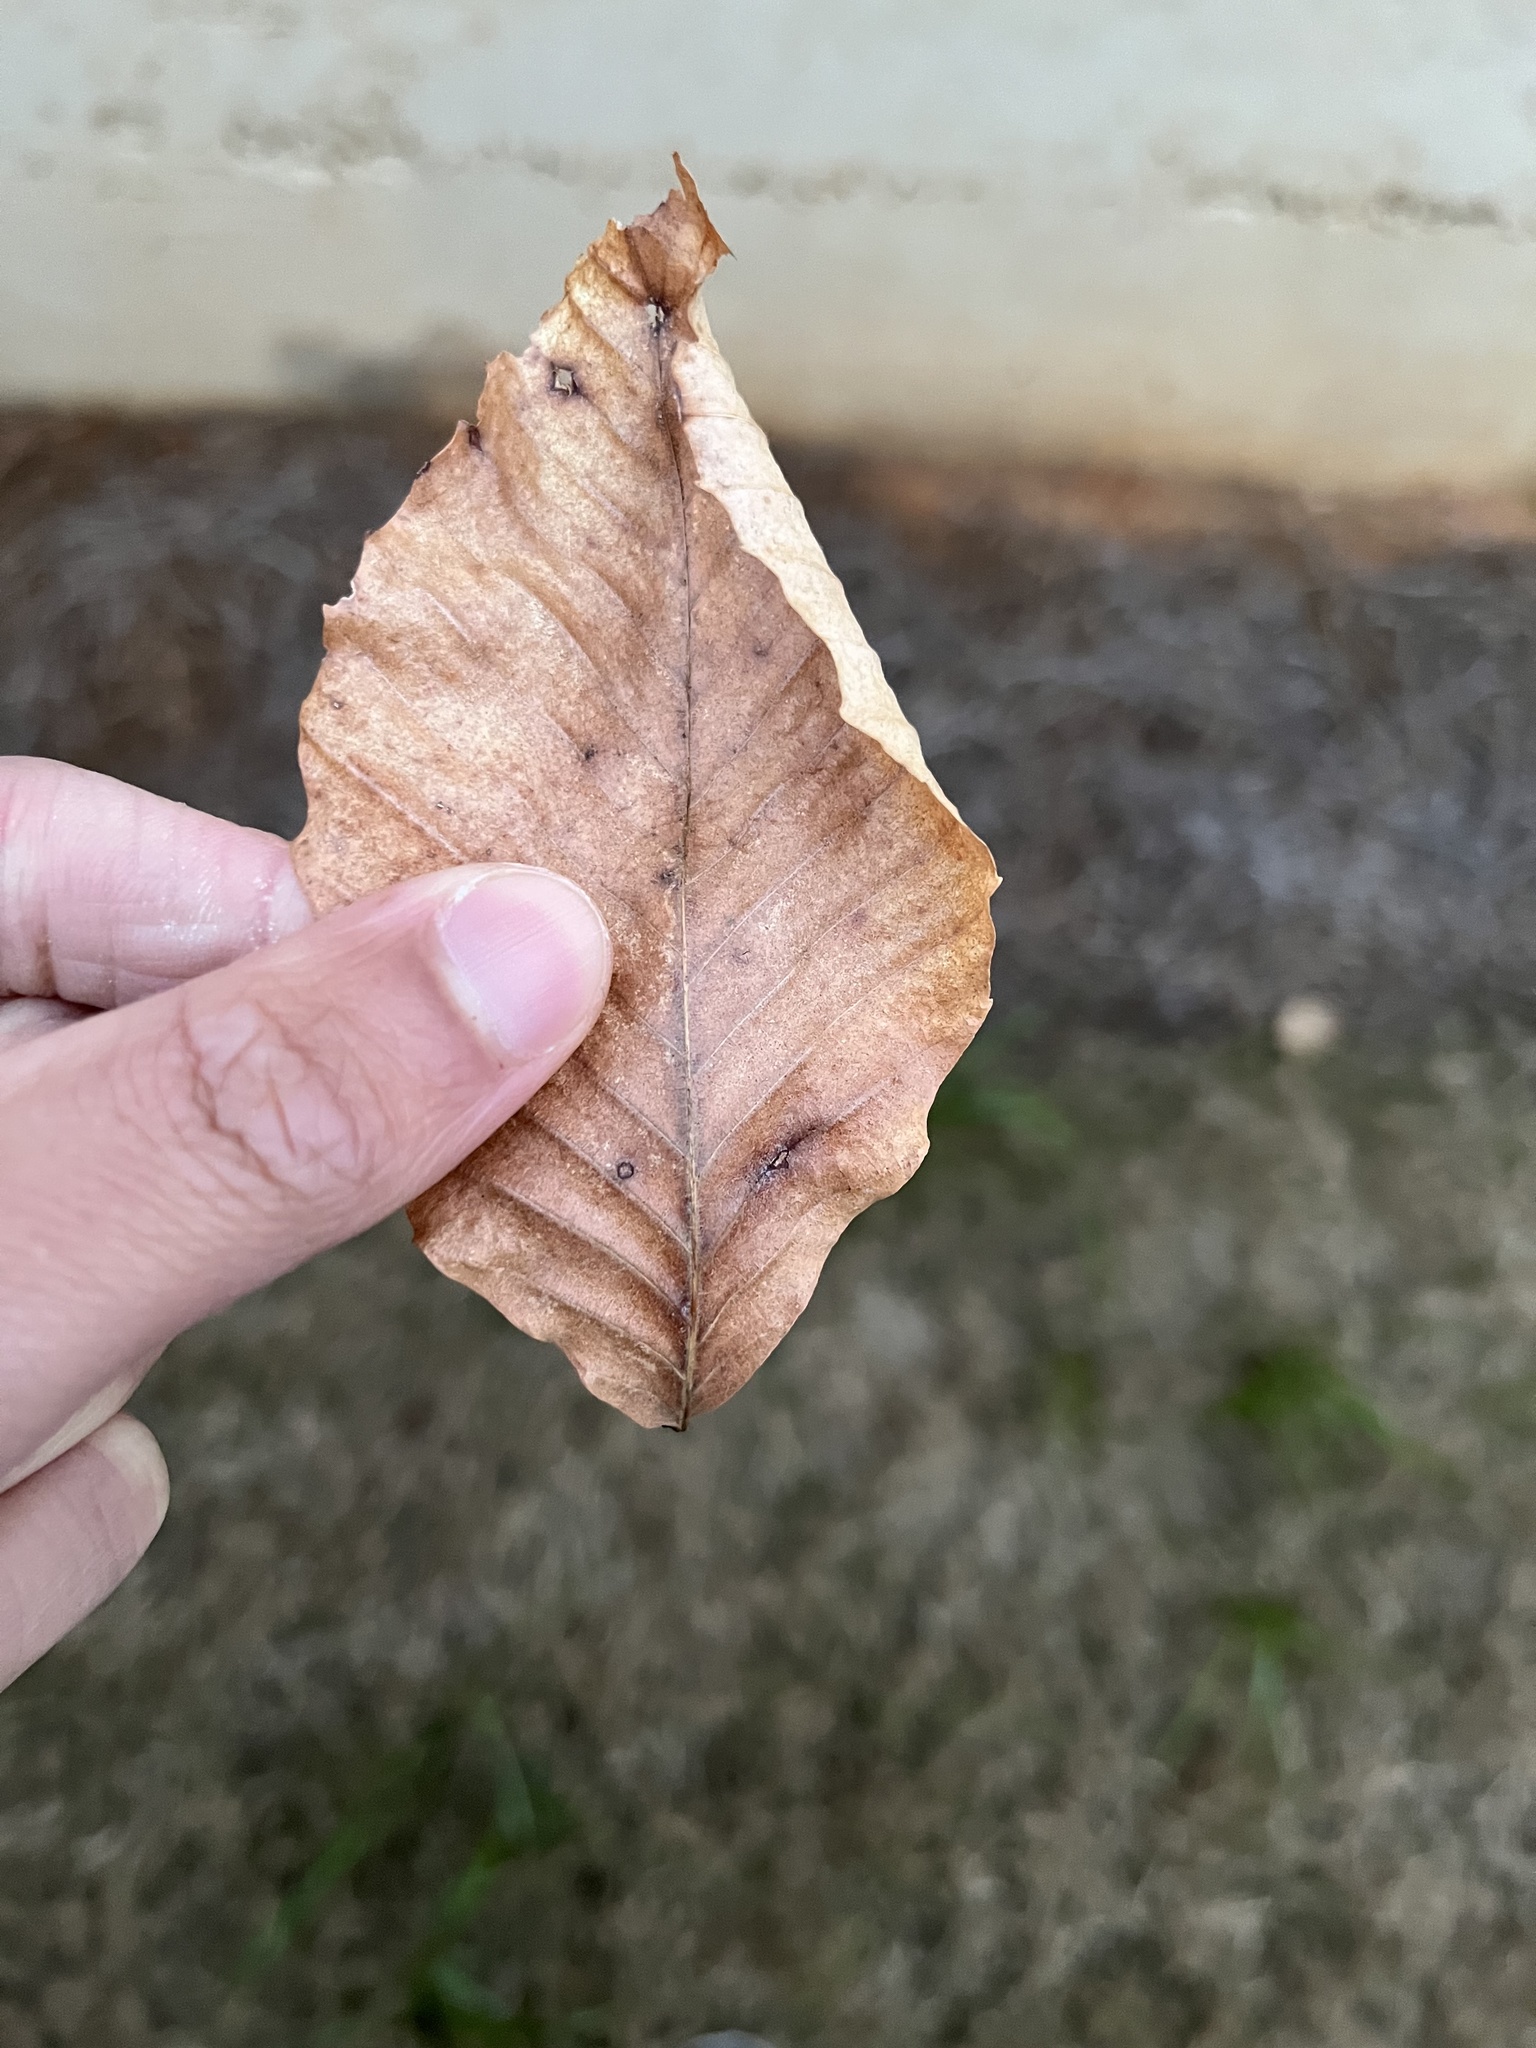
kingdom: Plantae
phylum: Tracheophyta
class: Magnoliopsida
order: Fagales
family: Fagaceae
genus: Fagus
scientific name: Fagus grandifolia
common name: American beech
